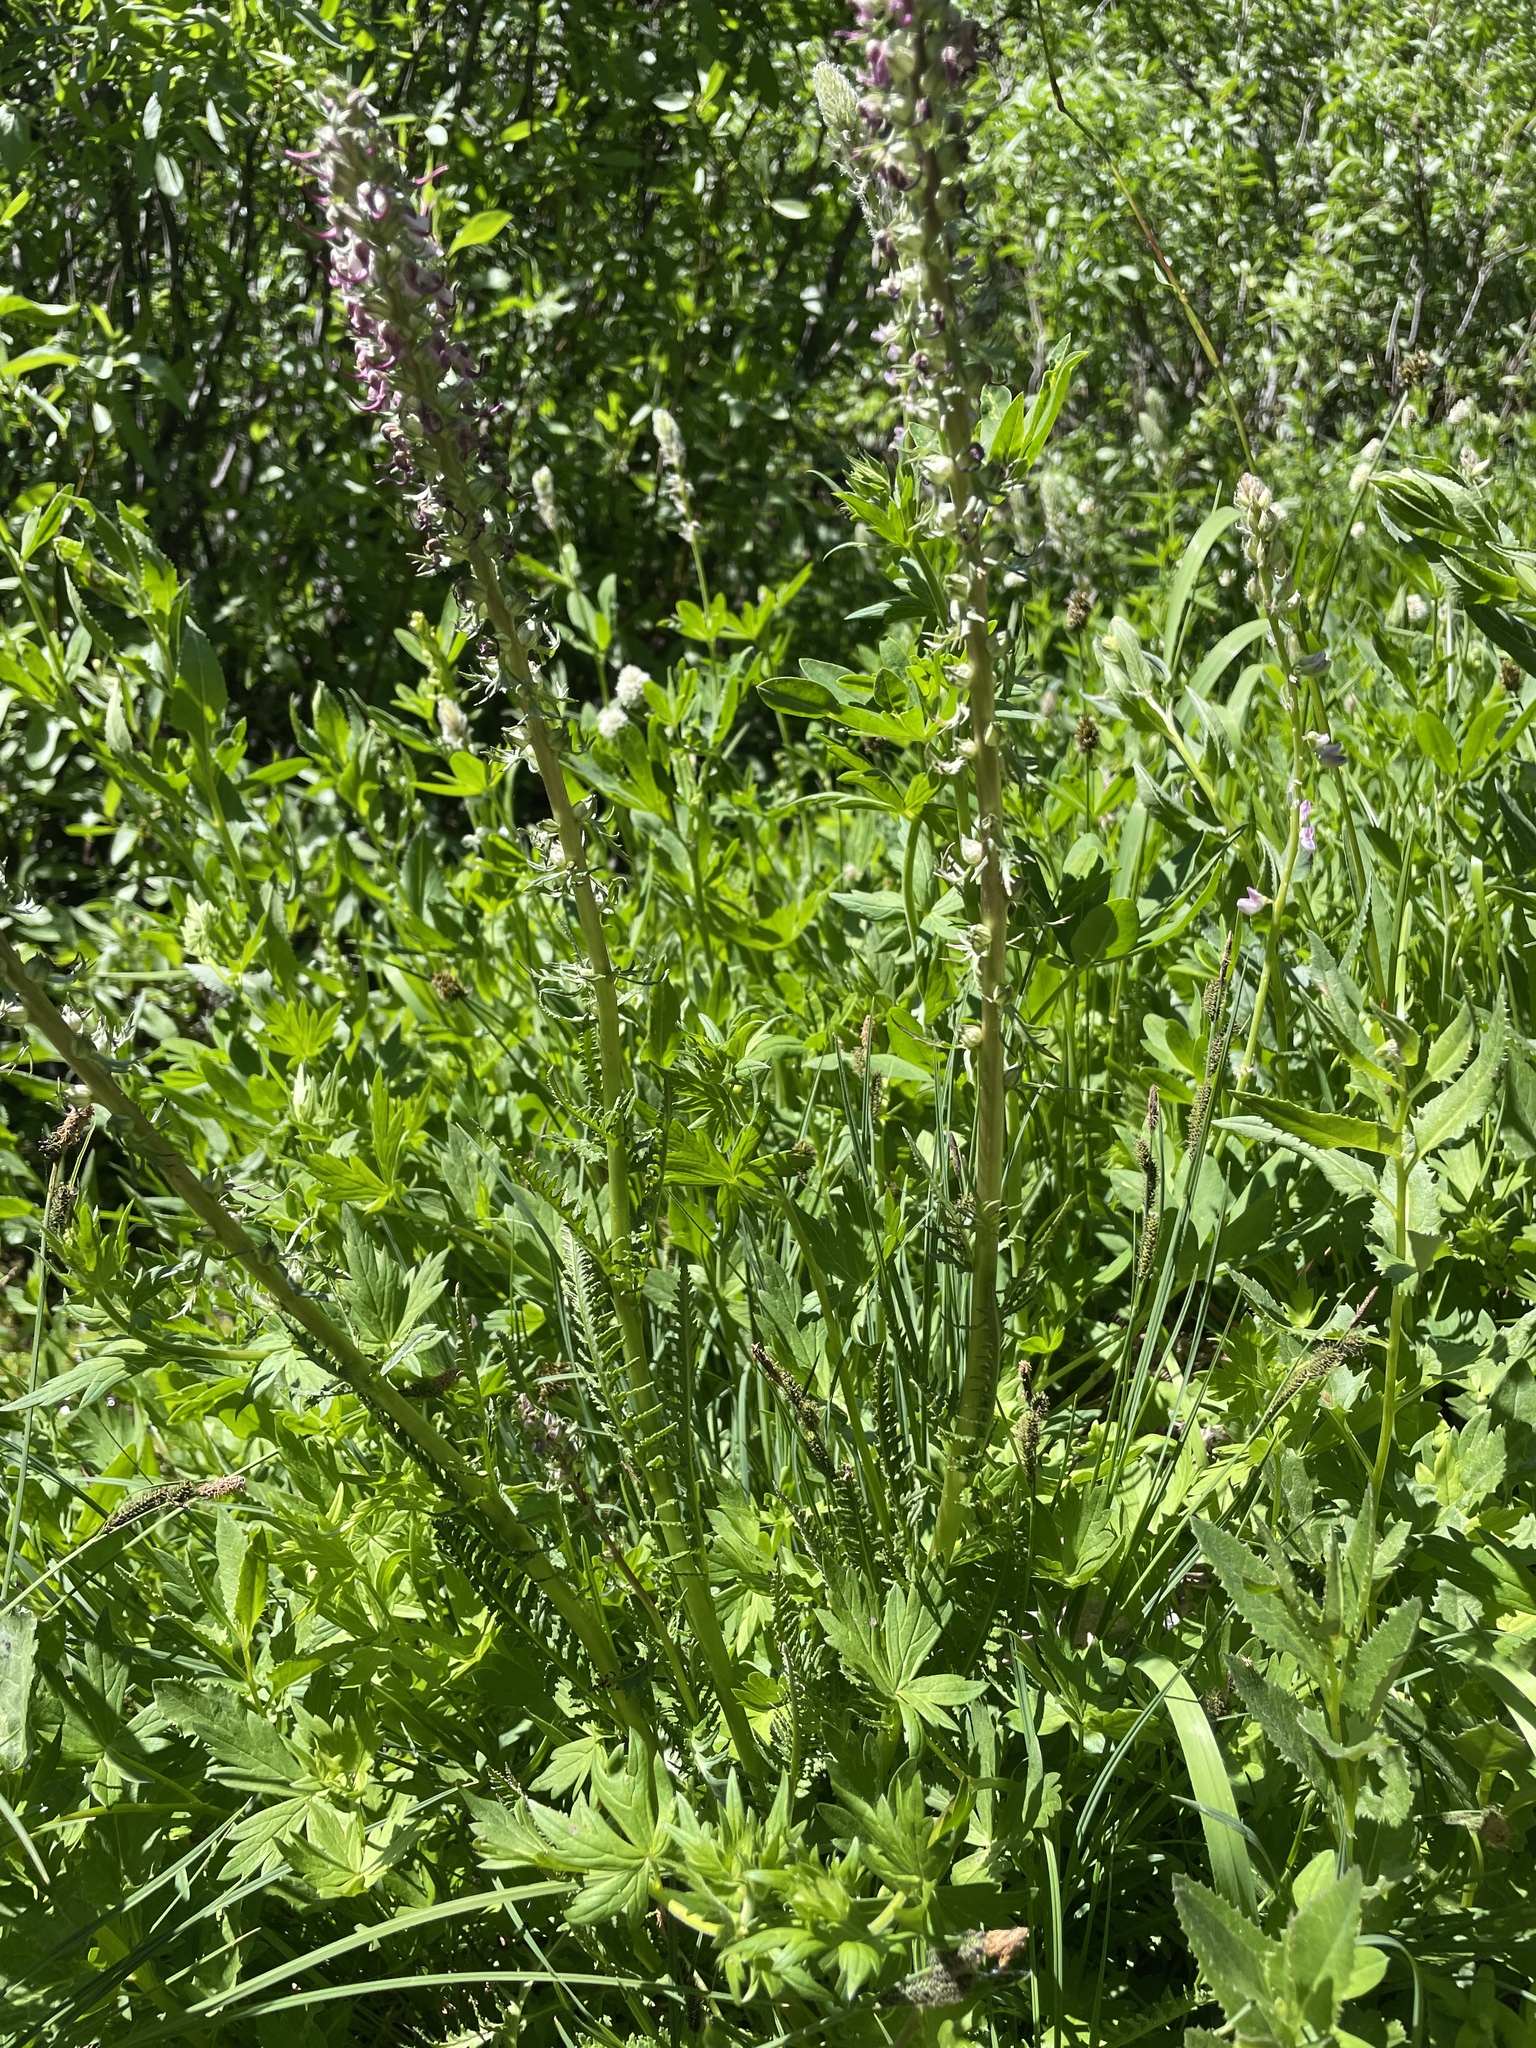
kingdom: Plantae
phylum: Tracheophyta
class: Magnoliopsida
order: Lamiales
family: Orobanchaceae
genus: Pedicularis
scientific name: Pedicularis groenlandica
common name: Elephant's-head
